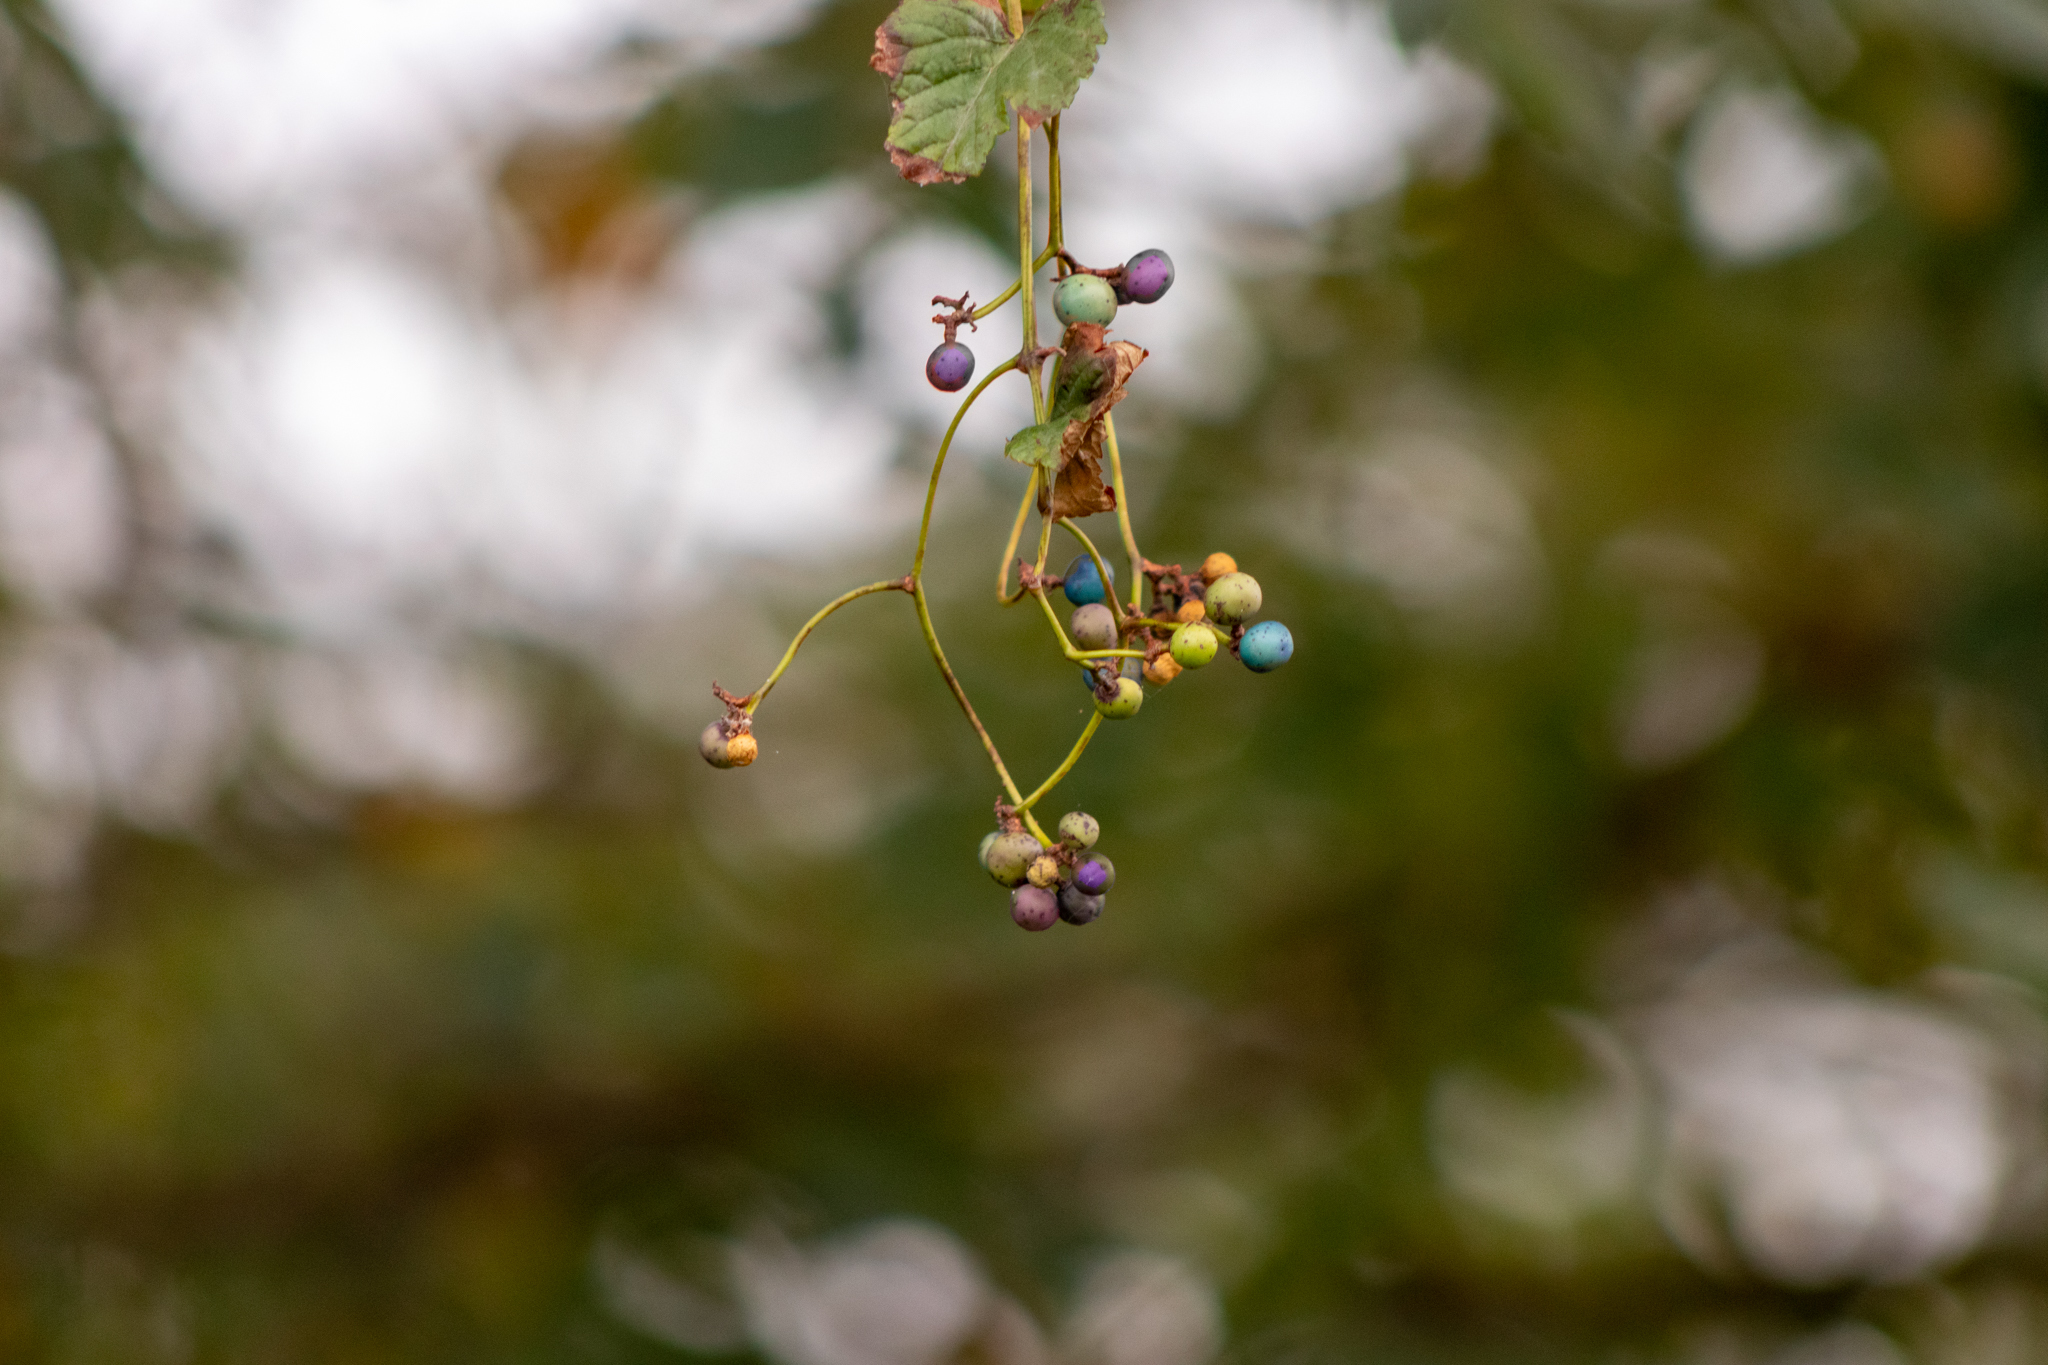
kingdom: Plantae
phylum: Tracheophyta
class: Magnoliopsida
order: Vitales
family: Vitaceae
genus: Ampelopsis
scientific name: Ampelopsis glandulosa
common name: Amur peppervine
